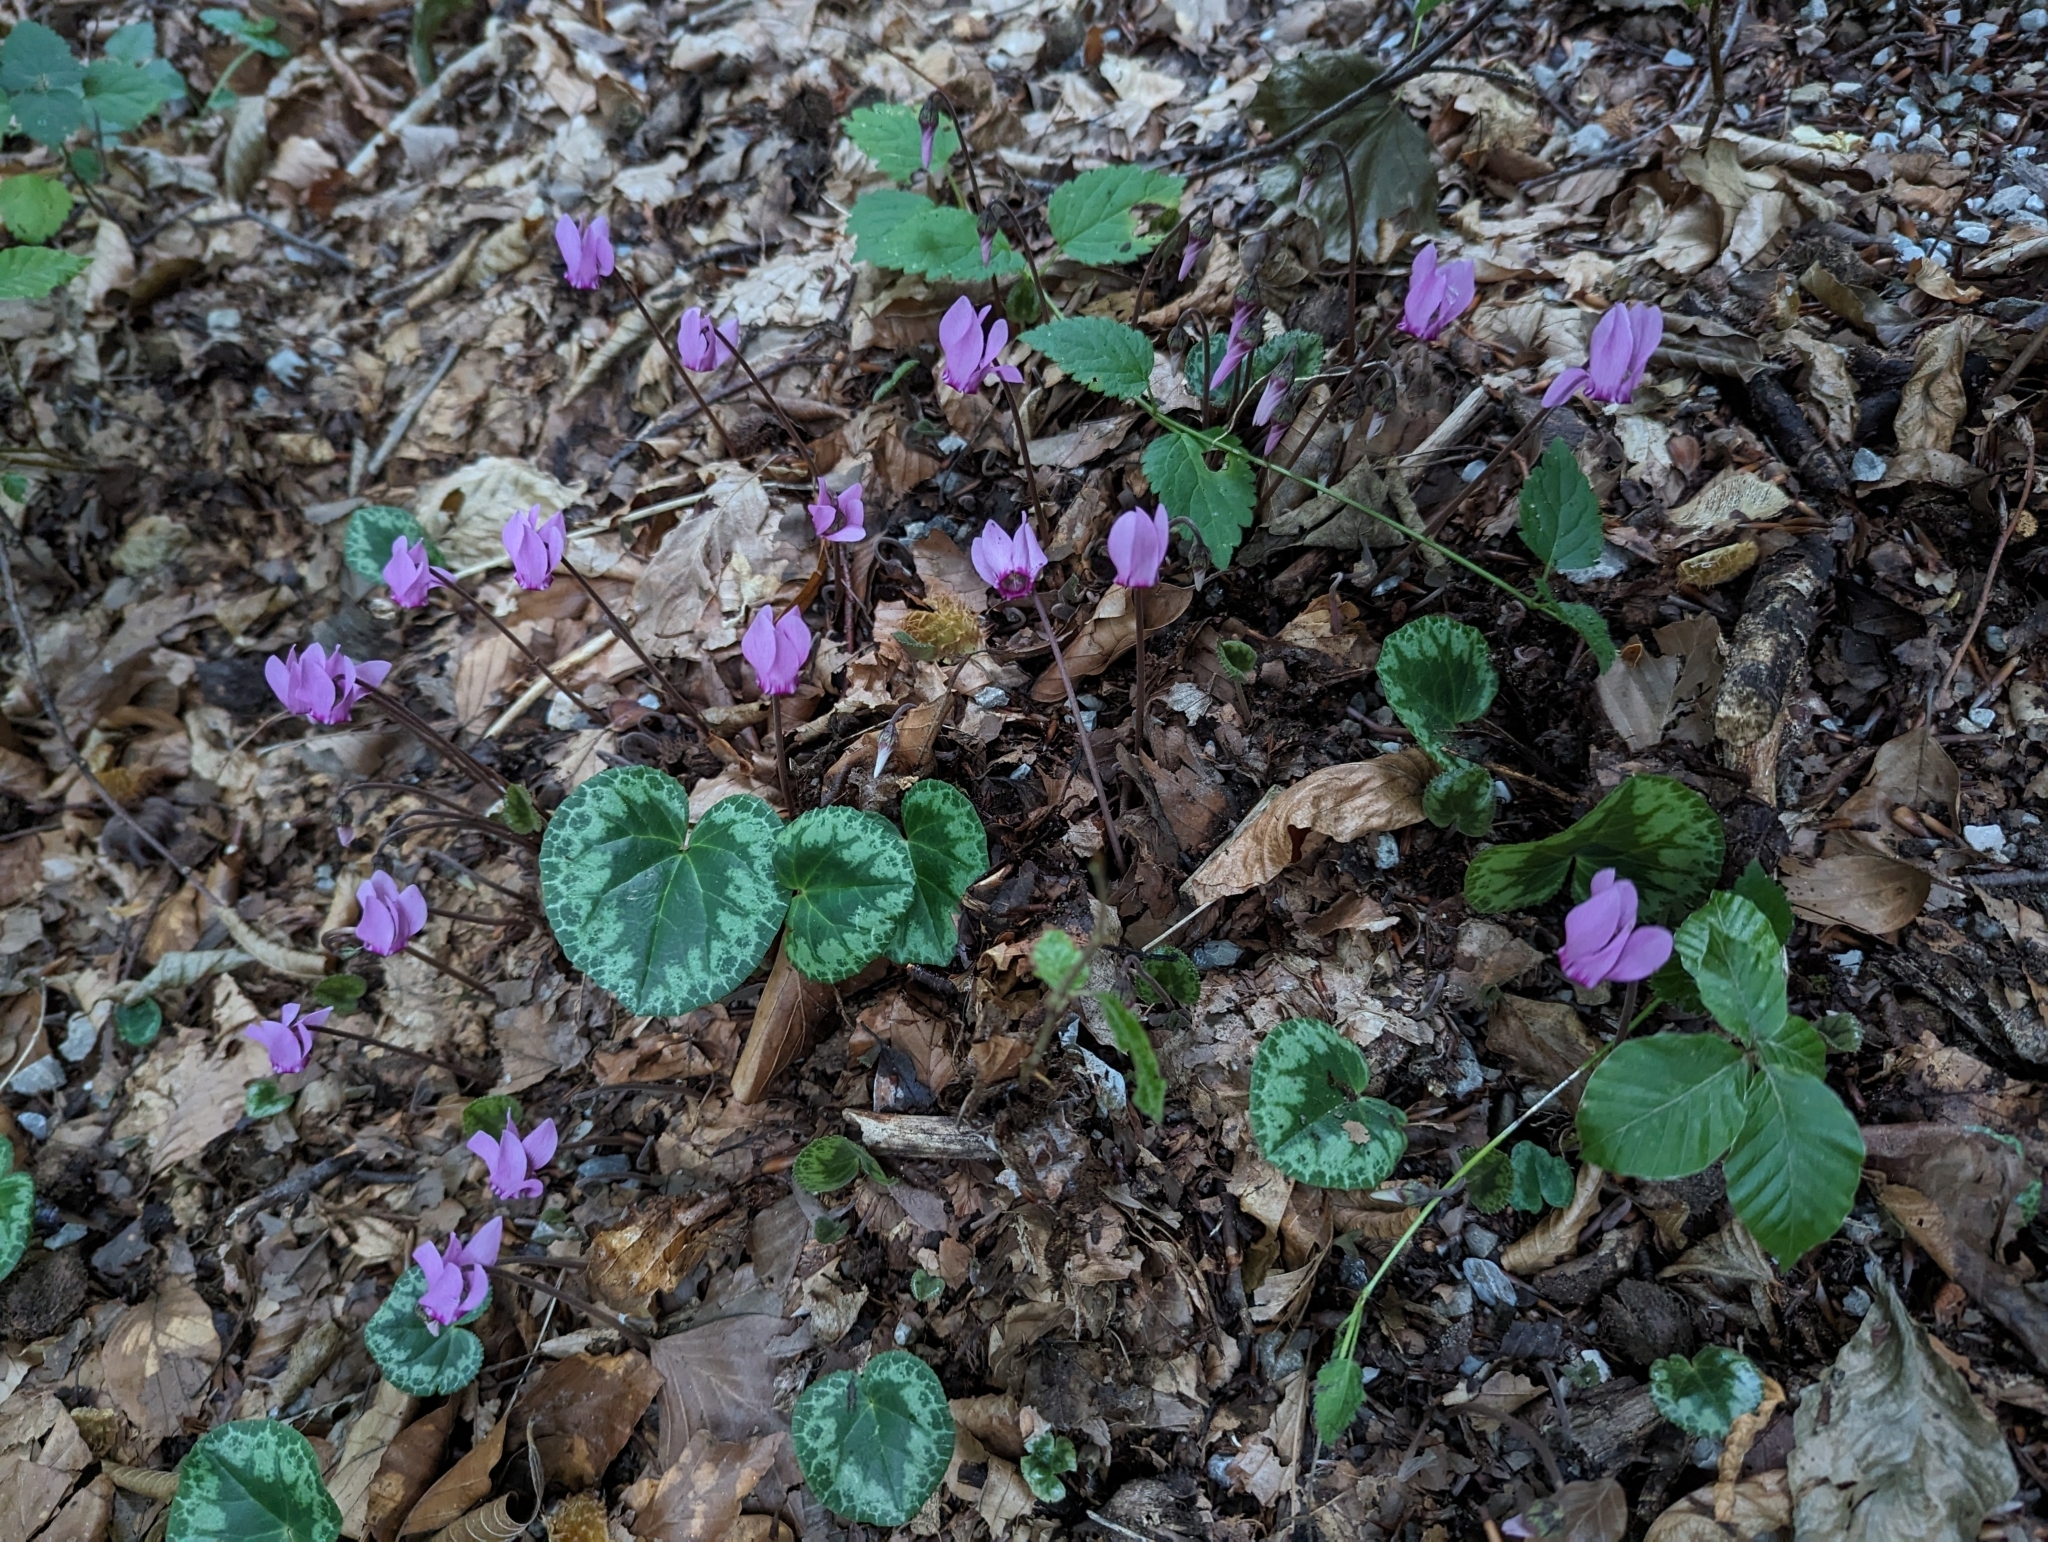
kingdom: Plantae
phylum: Tracheophyta
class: Magnoliopsida
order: Ericales
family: Primulaceae
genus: Cyclamen
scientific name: Cyclamen purpurascens
